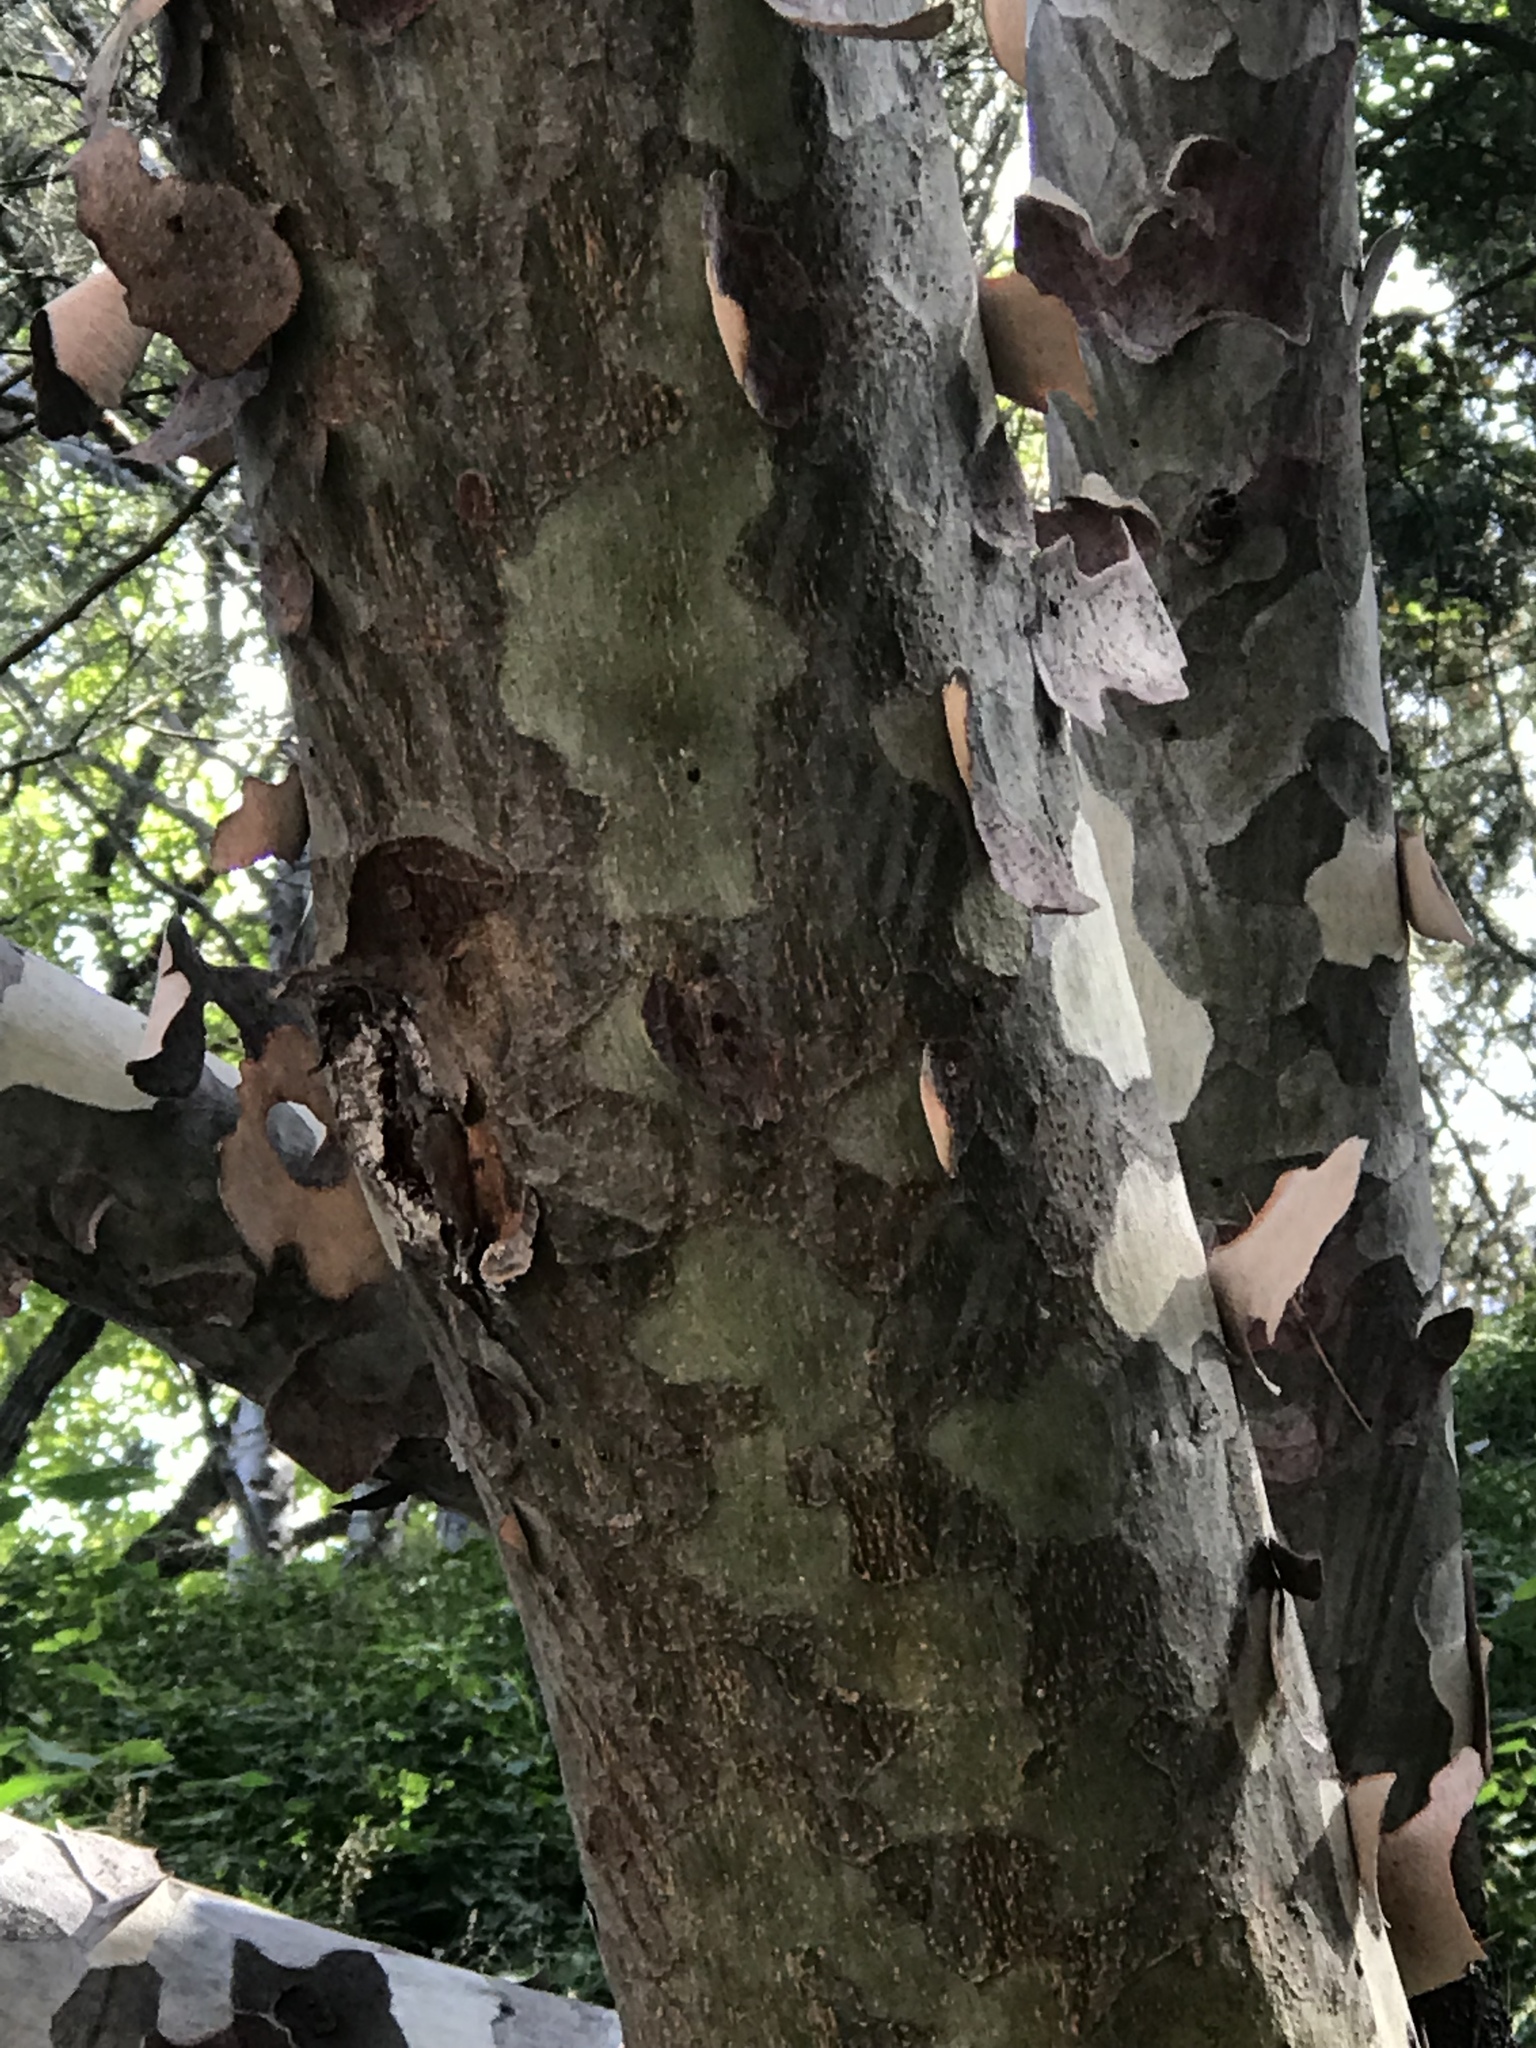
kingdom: Plantae
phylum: Tracheophyta
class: Pinopsida
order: Pinales
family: Pinaceae
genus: Pinus
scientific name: Pinus bungeana
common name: Lace-bark pine
